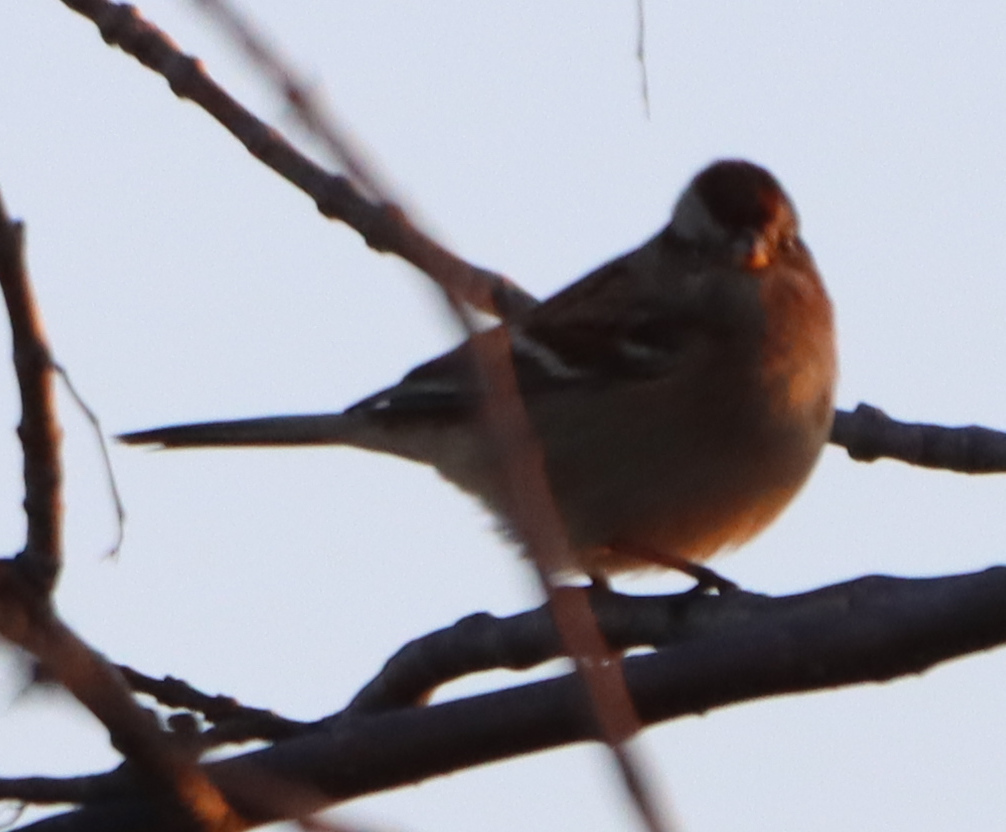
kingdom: Animalia
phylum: Chordata
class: Aves
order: Passeriformes
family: Passerellidae
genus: Spizelloides
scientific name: Spizelloides arborea
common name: American tree sparrow
